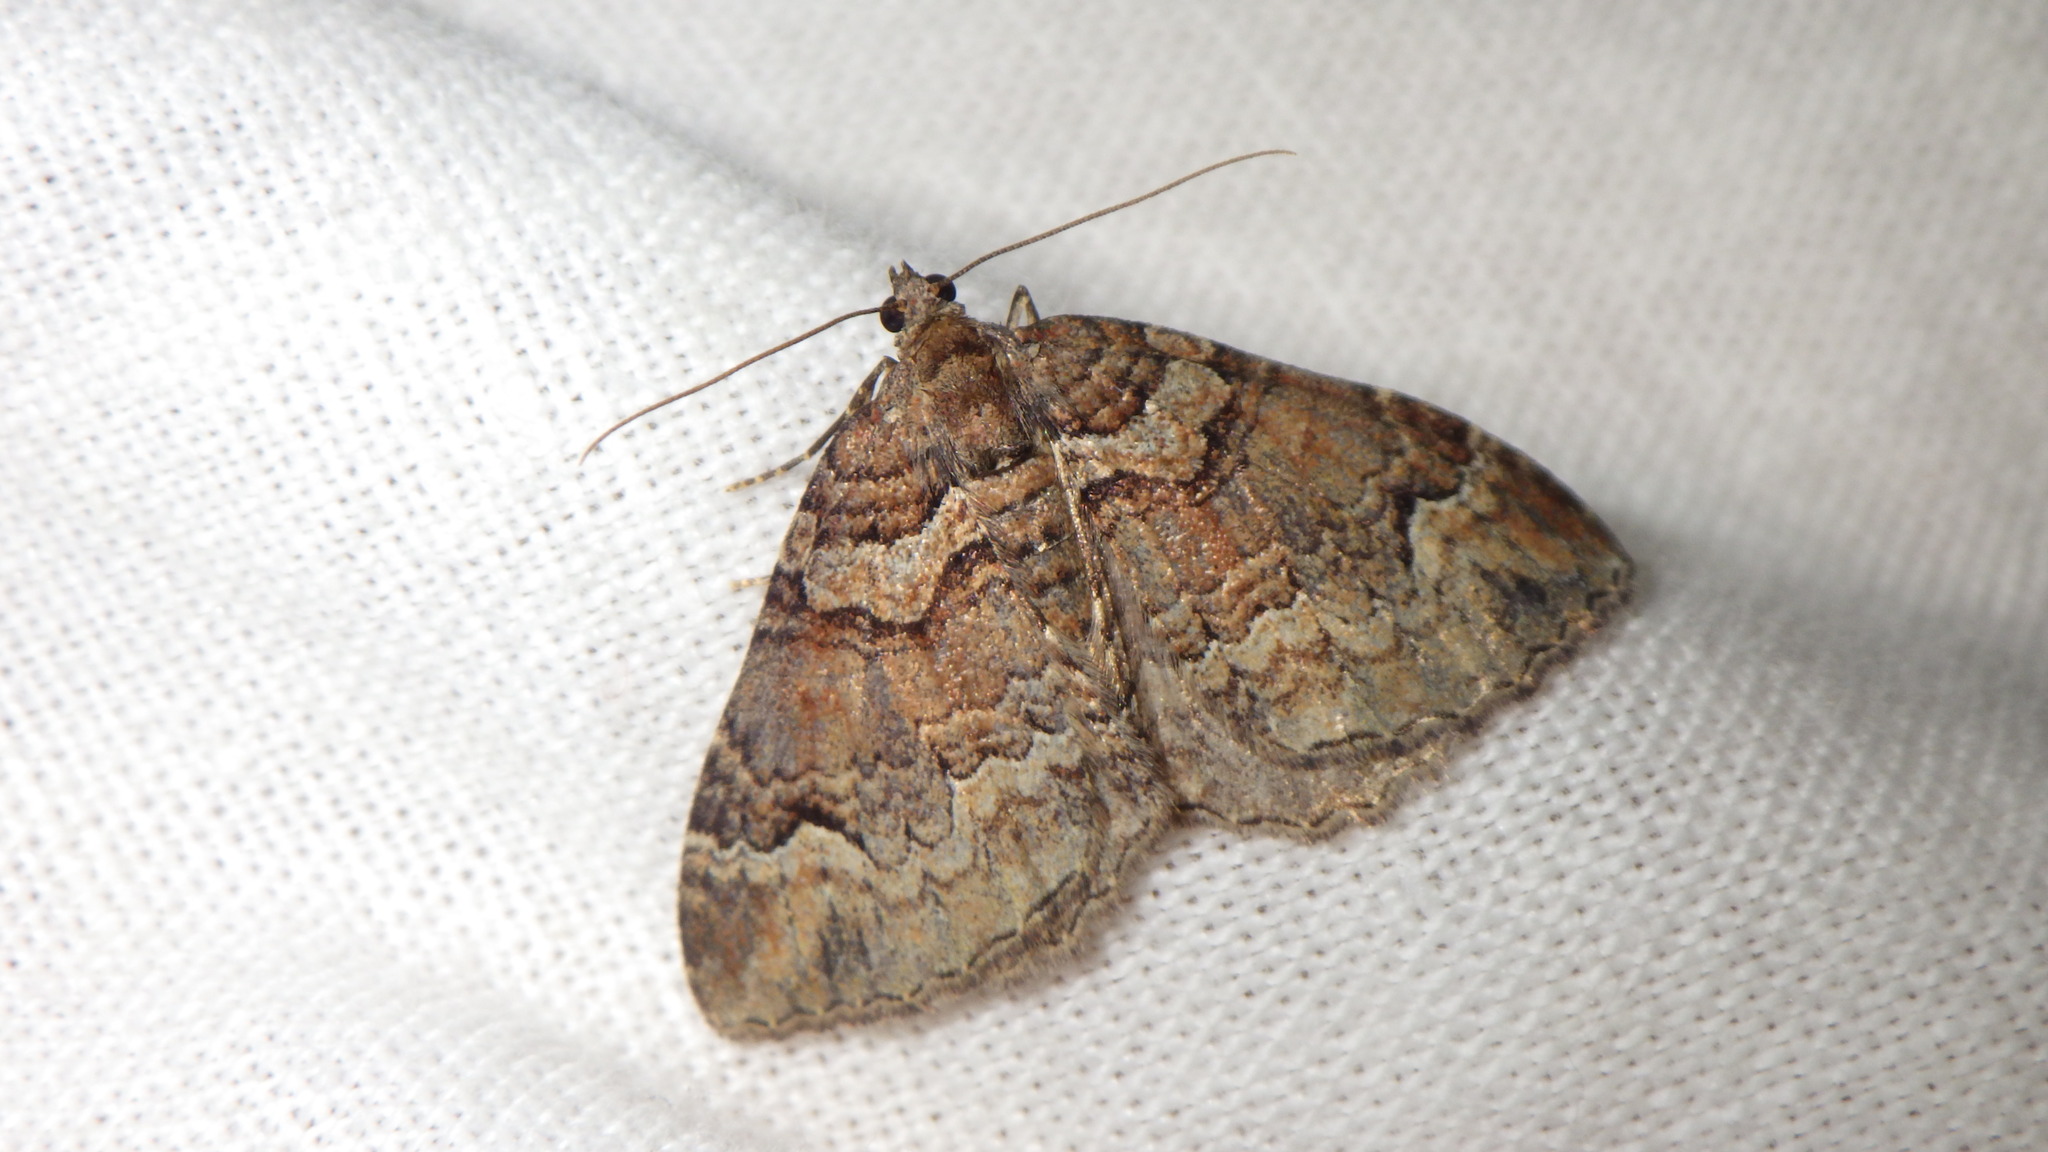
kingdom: Animalia
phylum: Arthropoda
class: Insecta
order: Lepidoptera
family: Geometridae
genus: Catarhoe
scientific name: Catarhoe basochesiata
